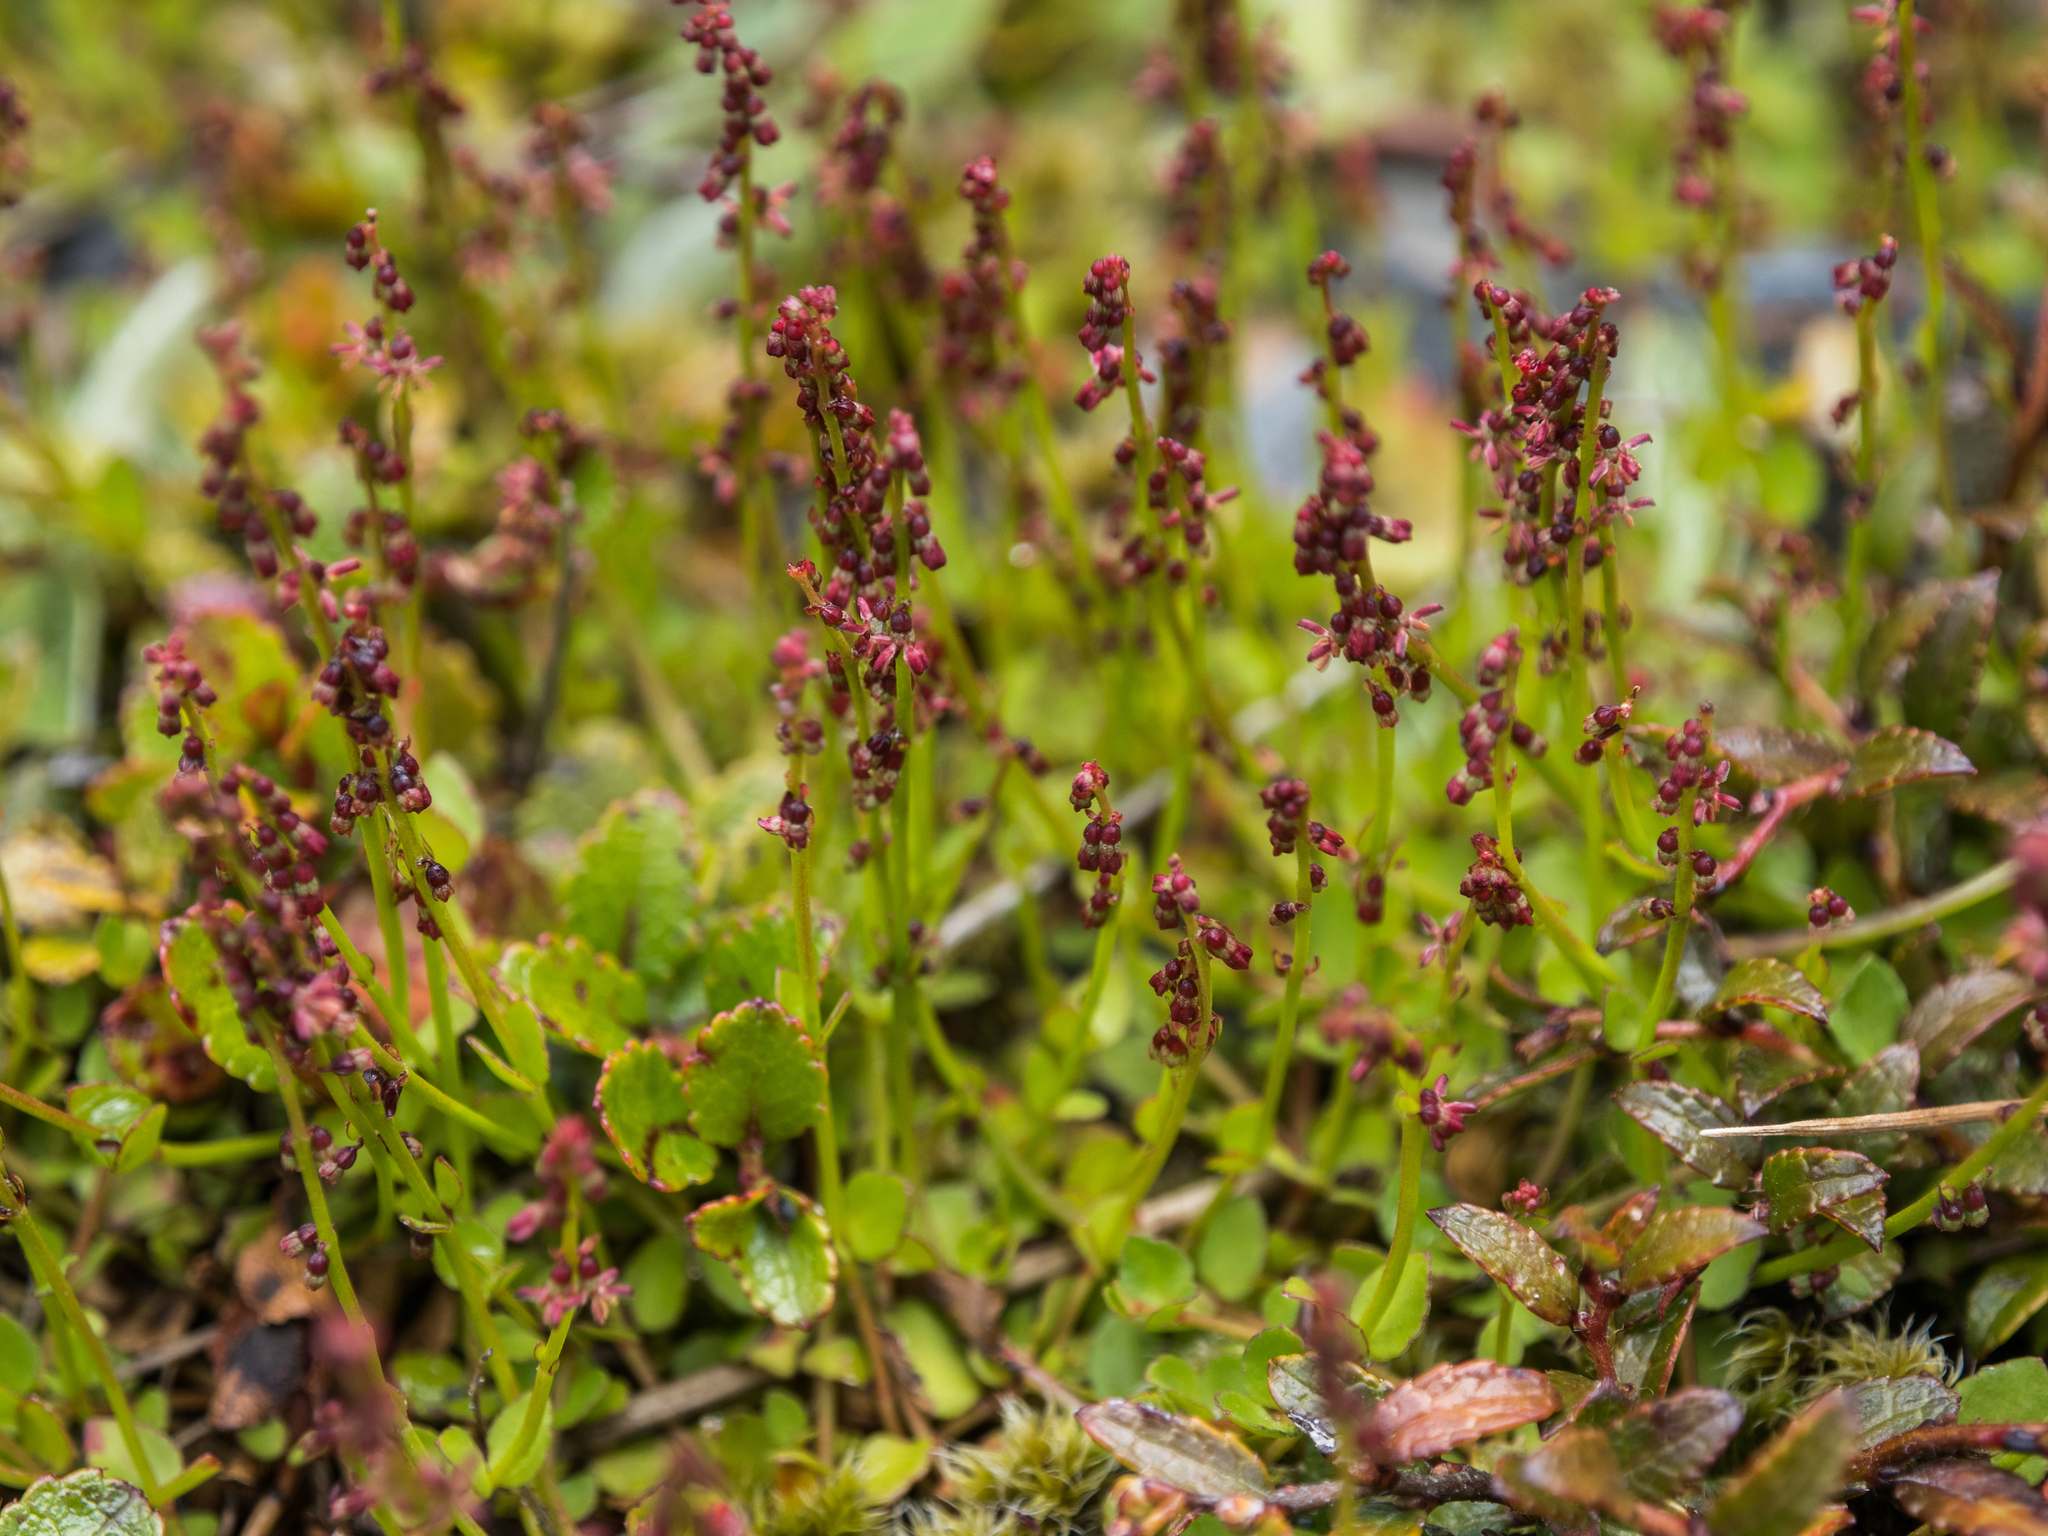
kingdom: Plantae
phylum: Tracheophyta
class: Magnoliopsida
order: Saxifragales
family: Haloragaceae
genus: Gonocarpus
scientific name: Gonocarpus micranthus
